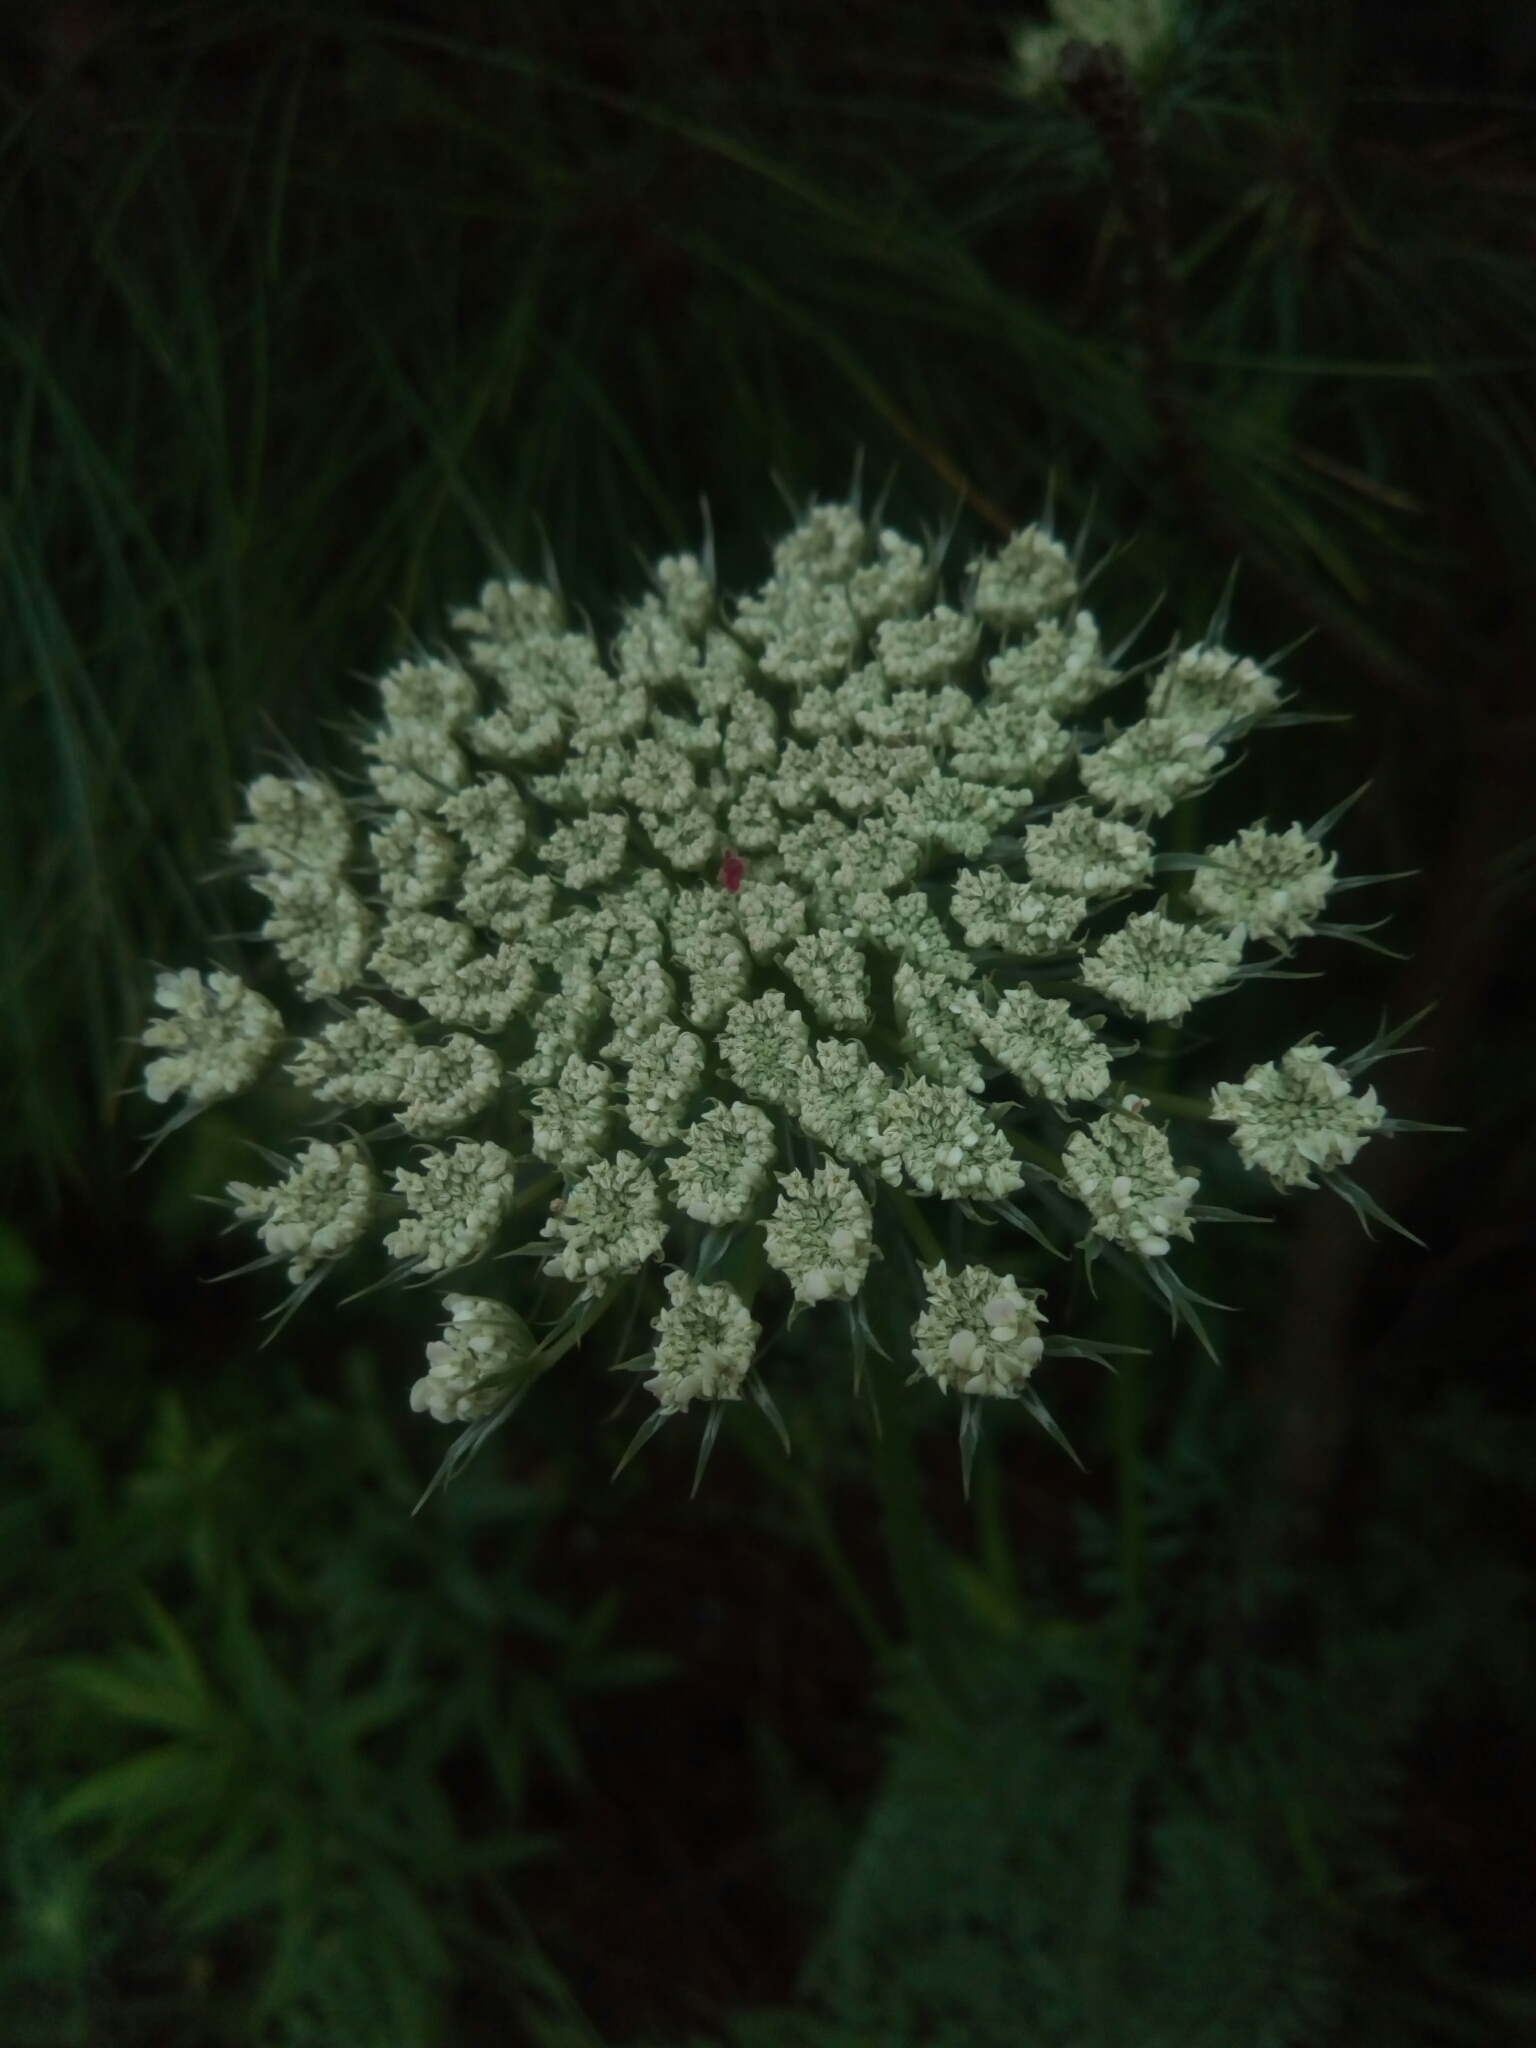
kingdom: Plantae
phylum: Tracheophyta
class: Magnoliopsida
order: Apiales
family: Apiaceae
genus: Daucus
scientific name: Daucus carota
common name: Wild carrot
